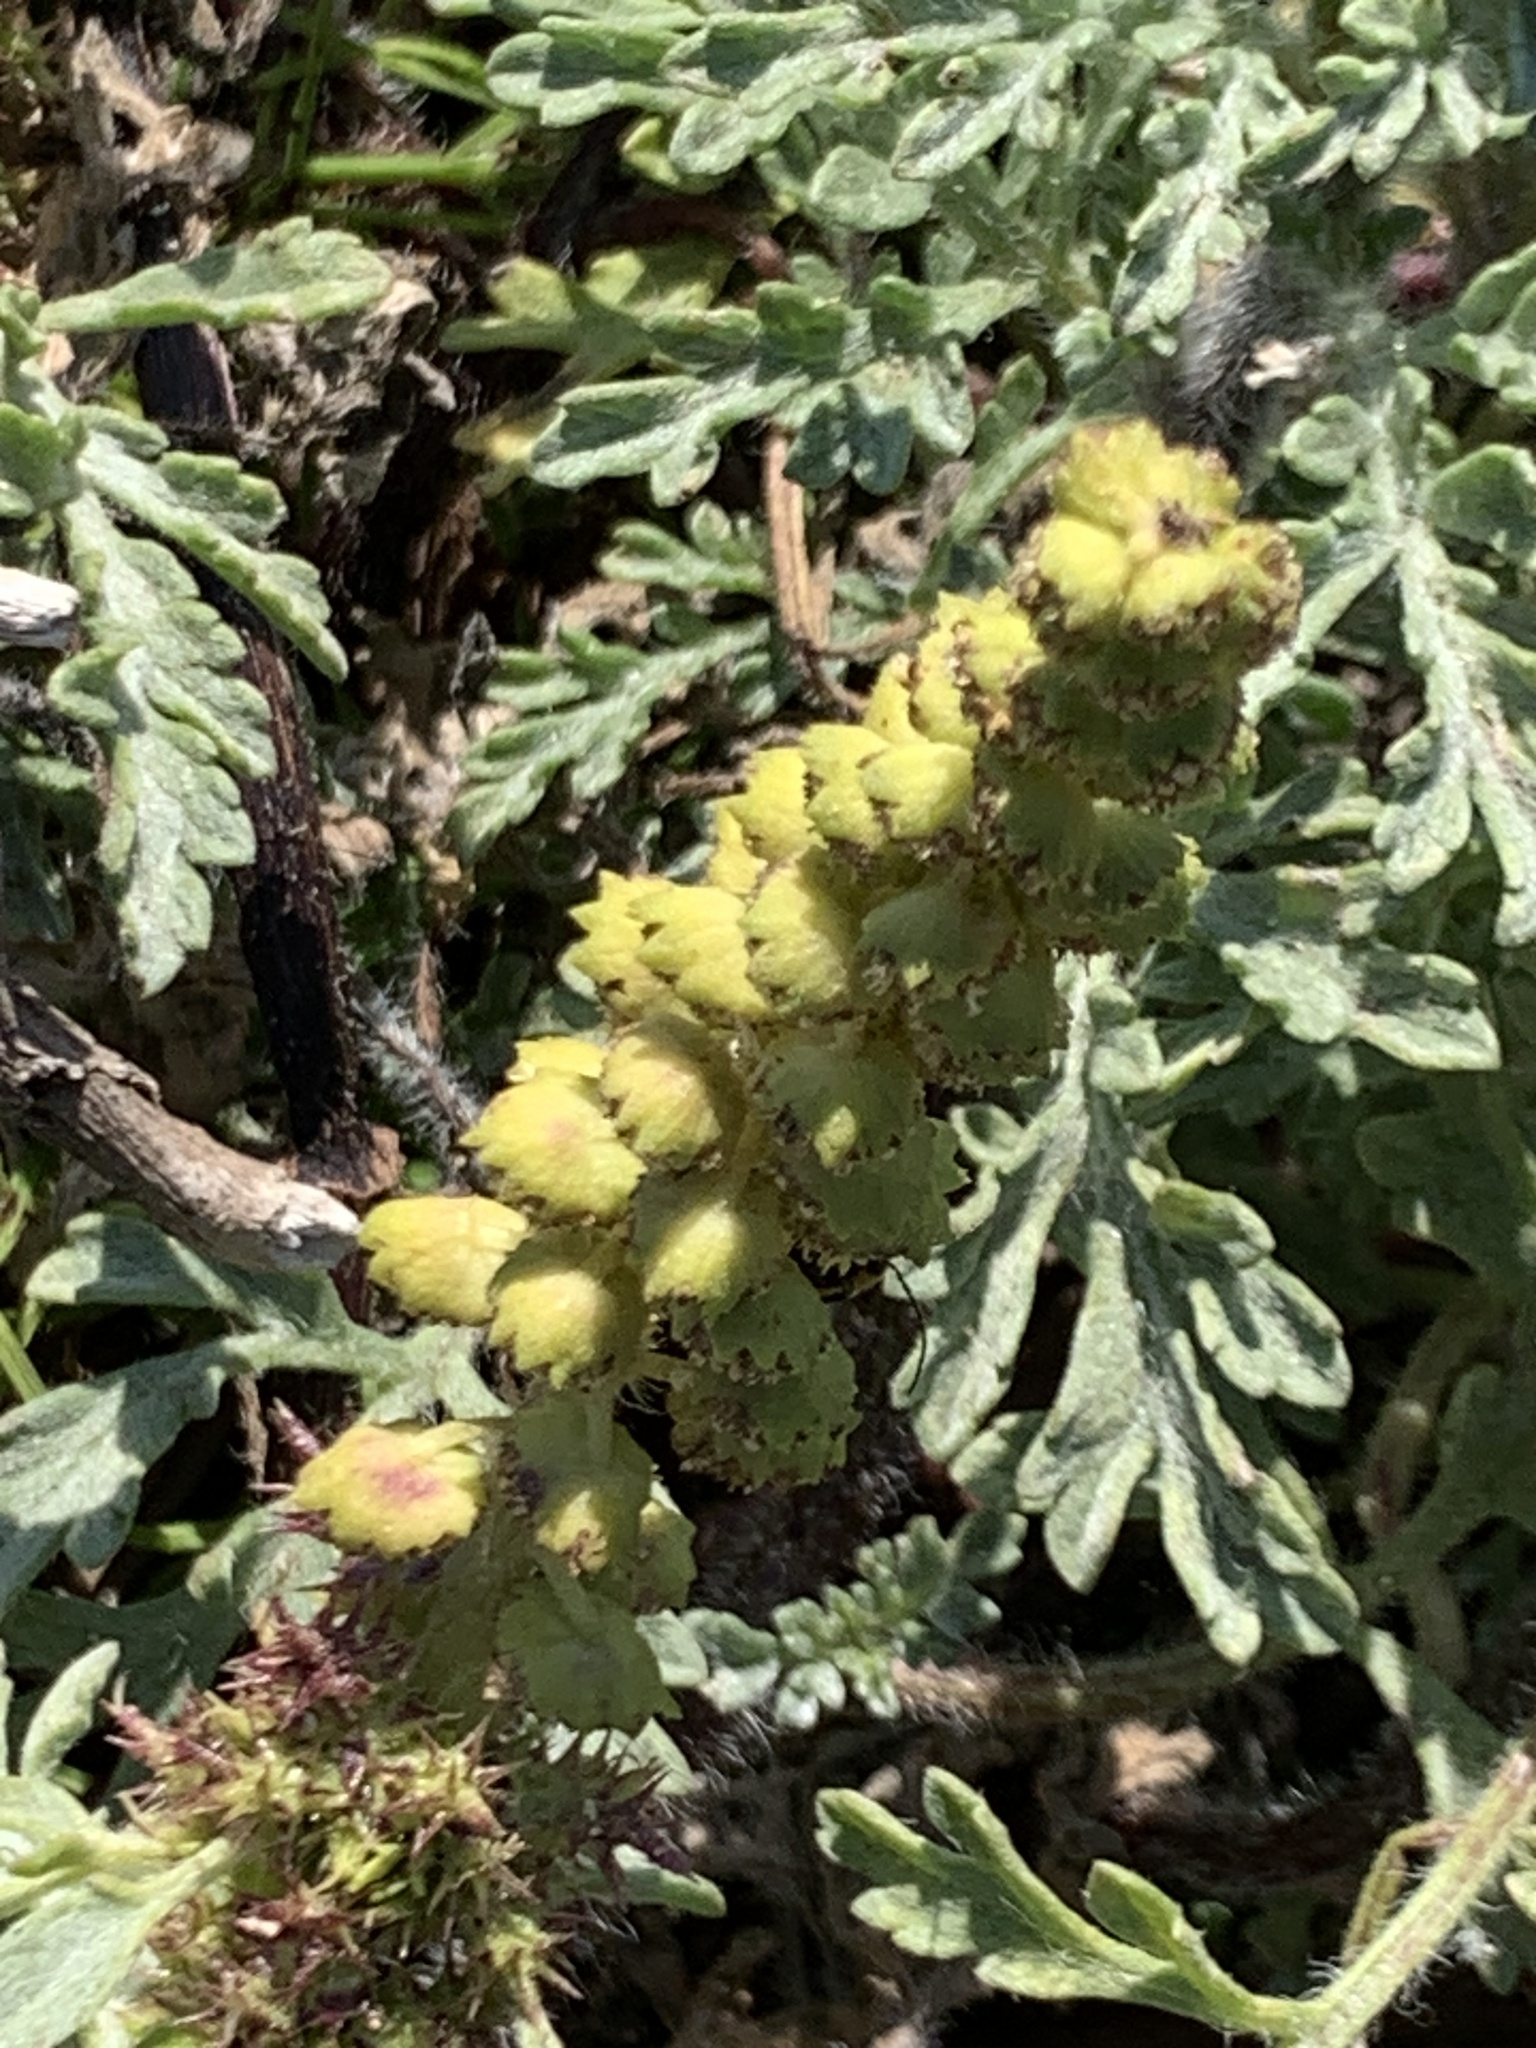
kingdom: Plantae
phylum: Tracheophyta
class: Magnoliopsida
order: Asterales
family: Asteraceae
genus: Ambrosia
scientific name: Ambrosia chamissonis
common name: Beachbur
